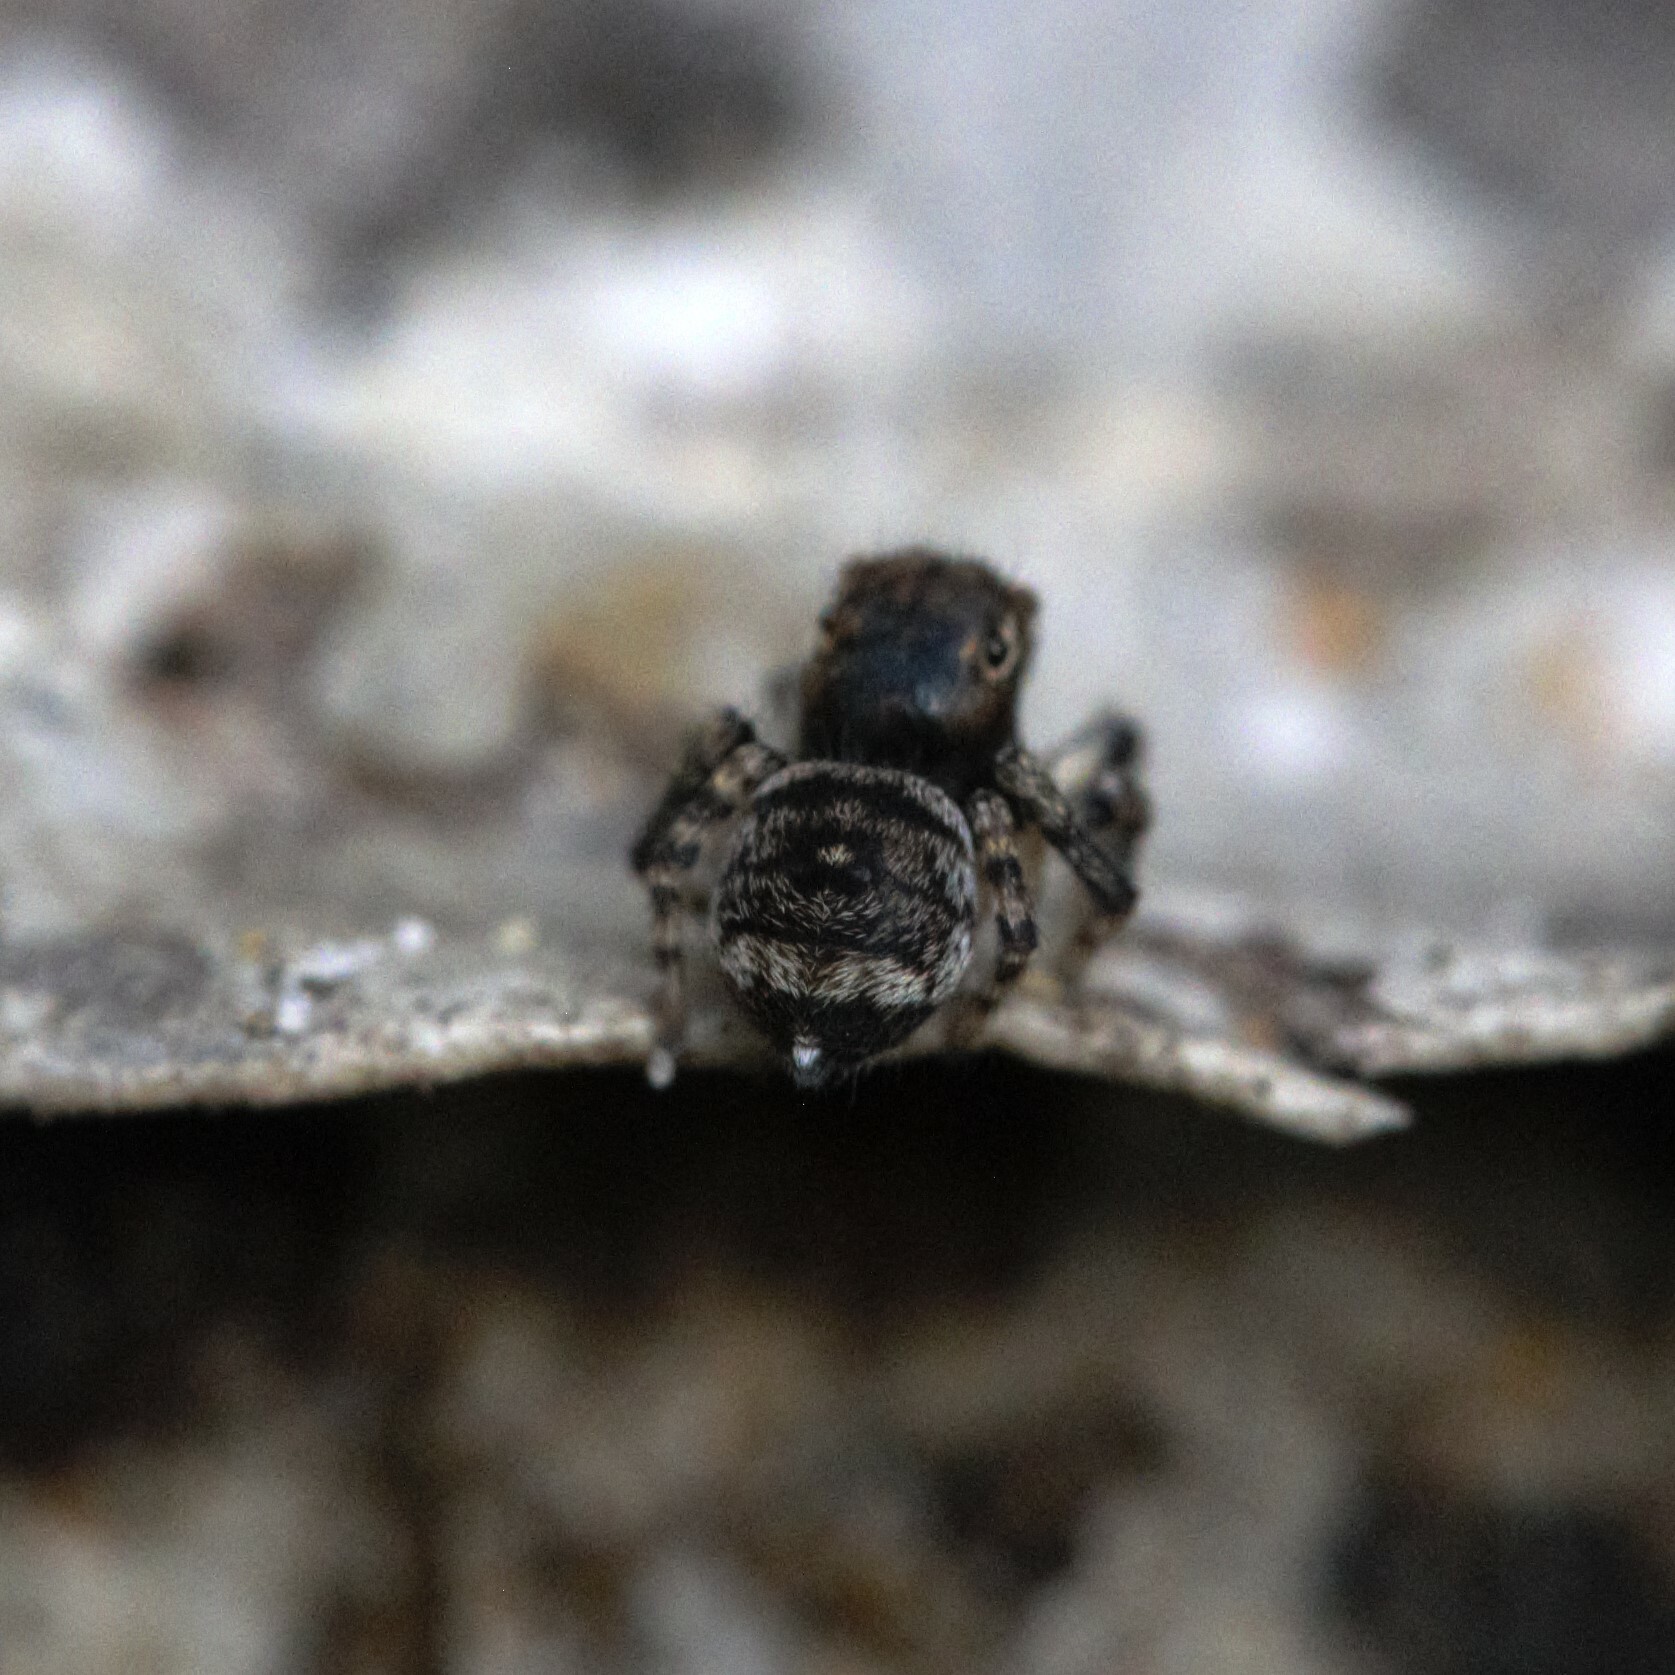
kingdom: Animalia
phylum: Arthropoda
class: Arachnida
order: Araneae
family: Salticidae
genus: Maratus
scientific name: Maratus karrie
